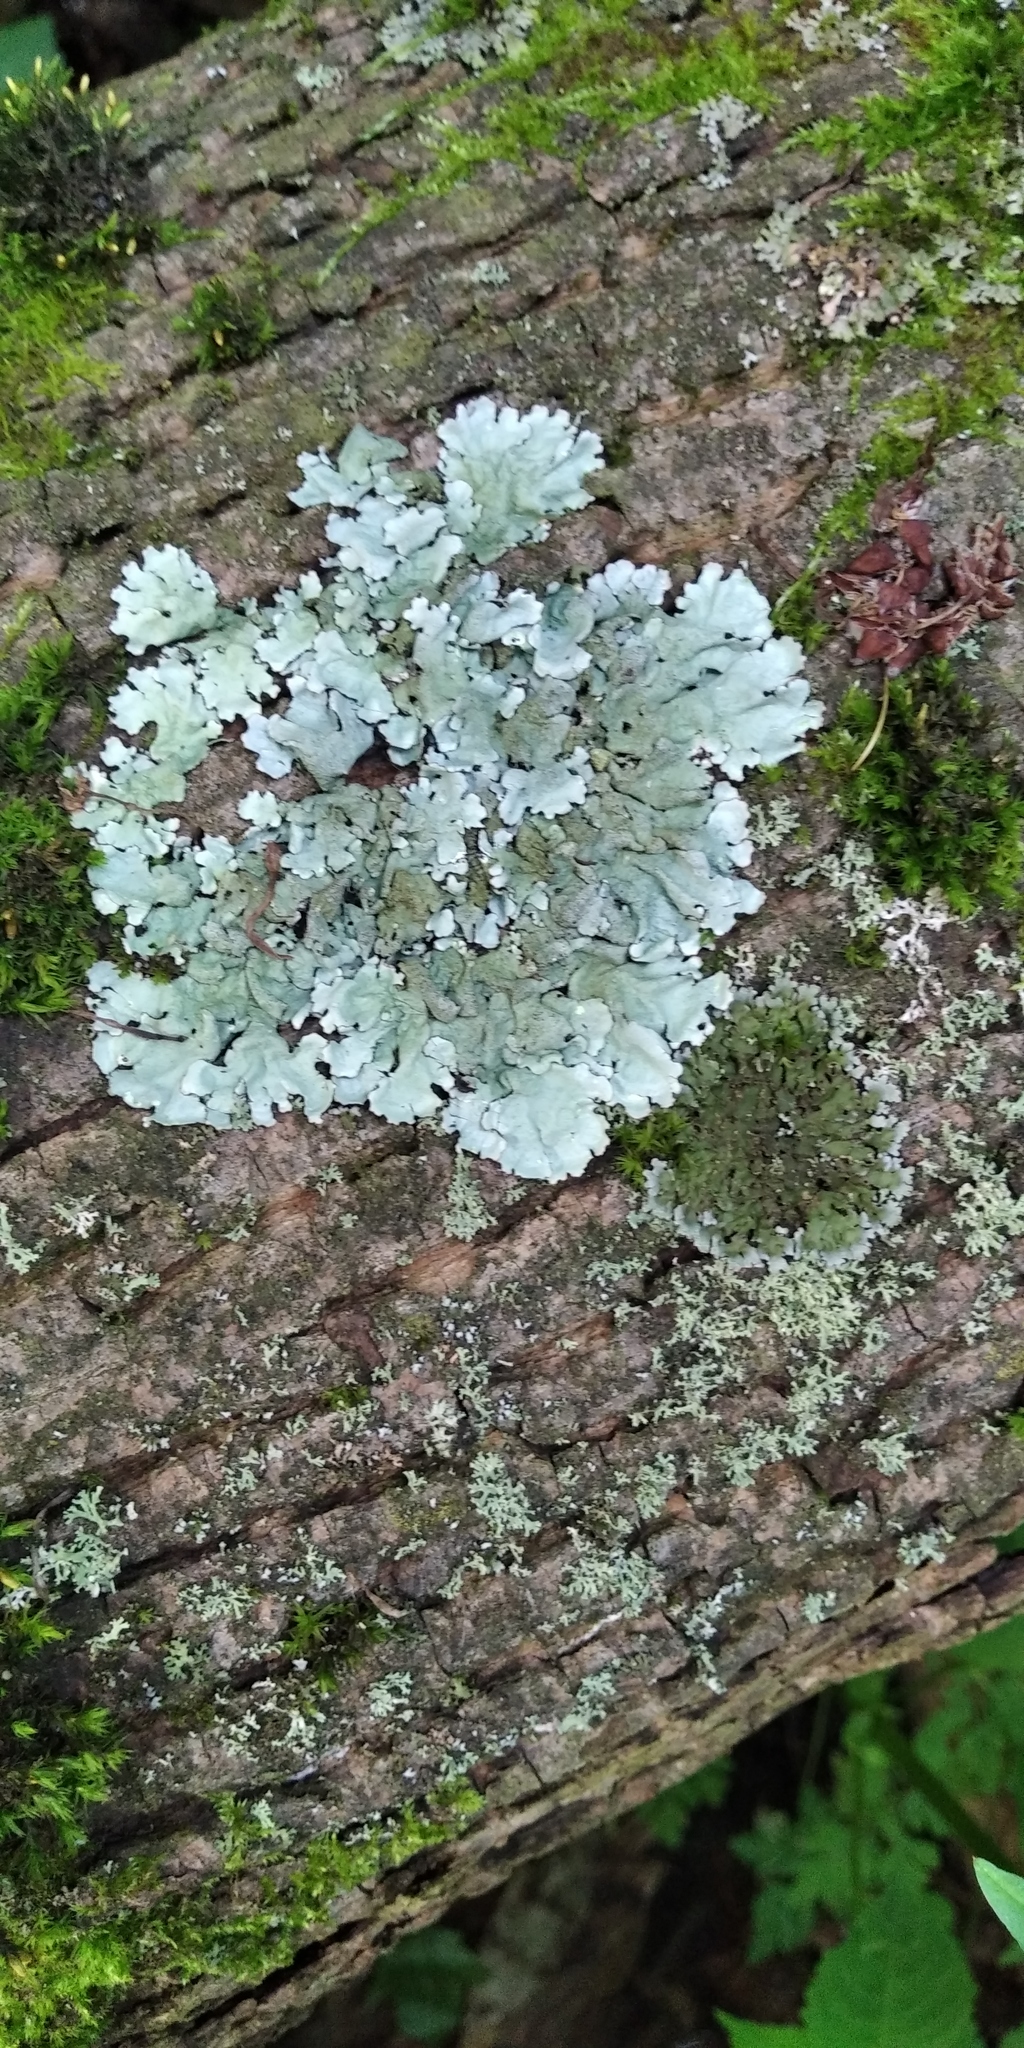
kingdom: Fungi
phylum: Ascomycota
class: Lecanoromycetes
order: Lecanorales
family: Parmeliaceae
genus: Parmelina
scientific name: Parmelina tiliacea
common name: Linden shield lichen
